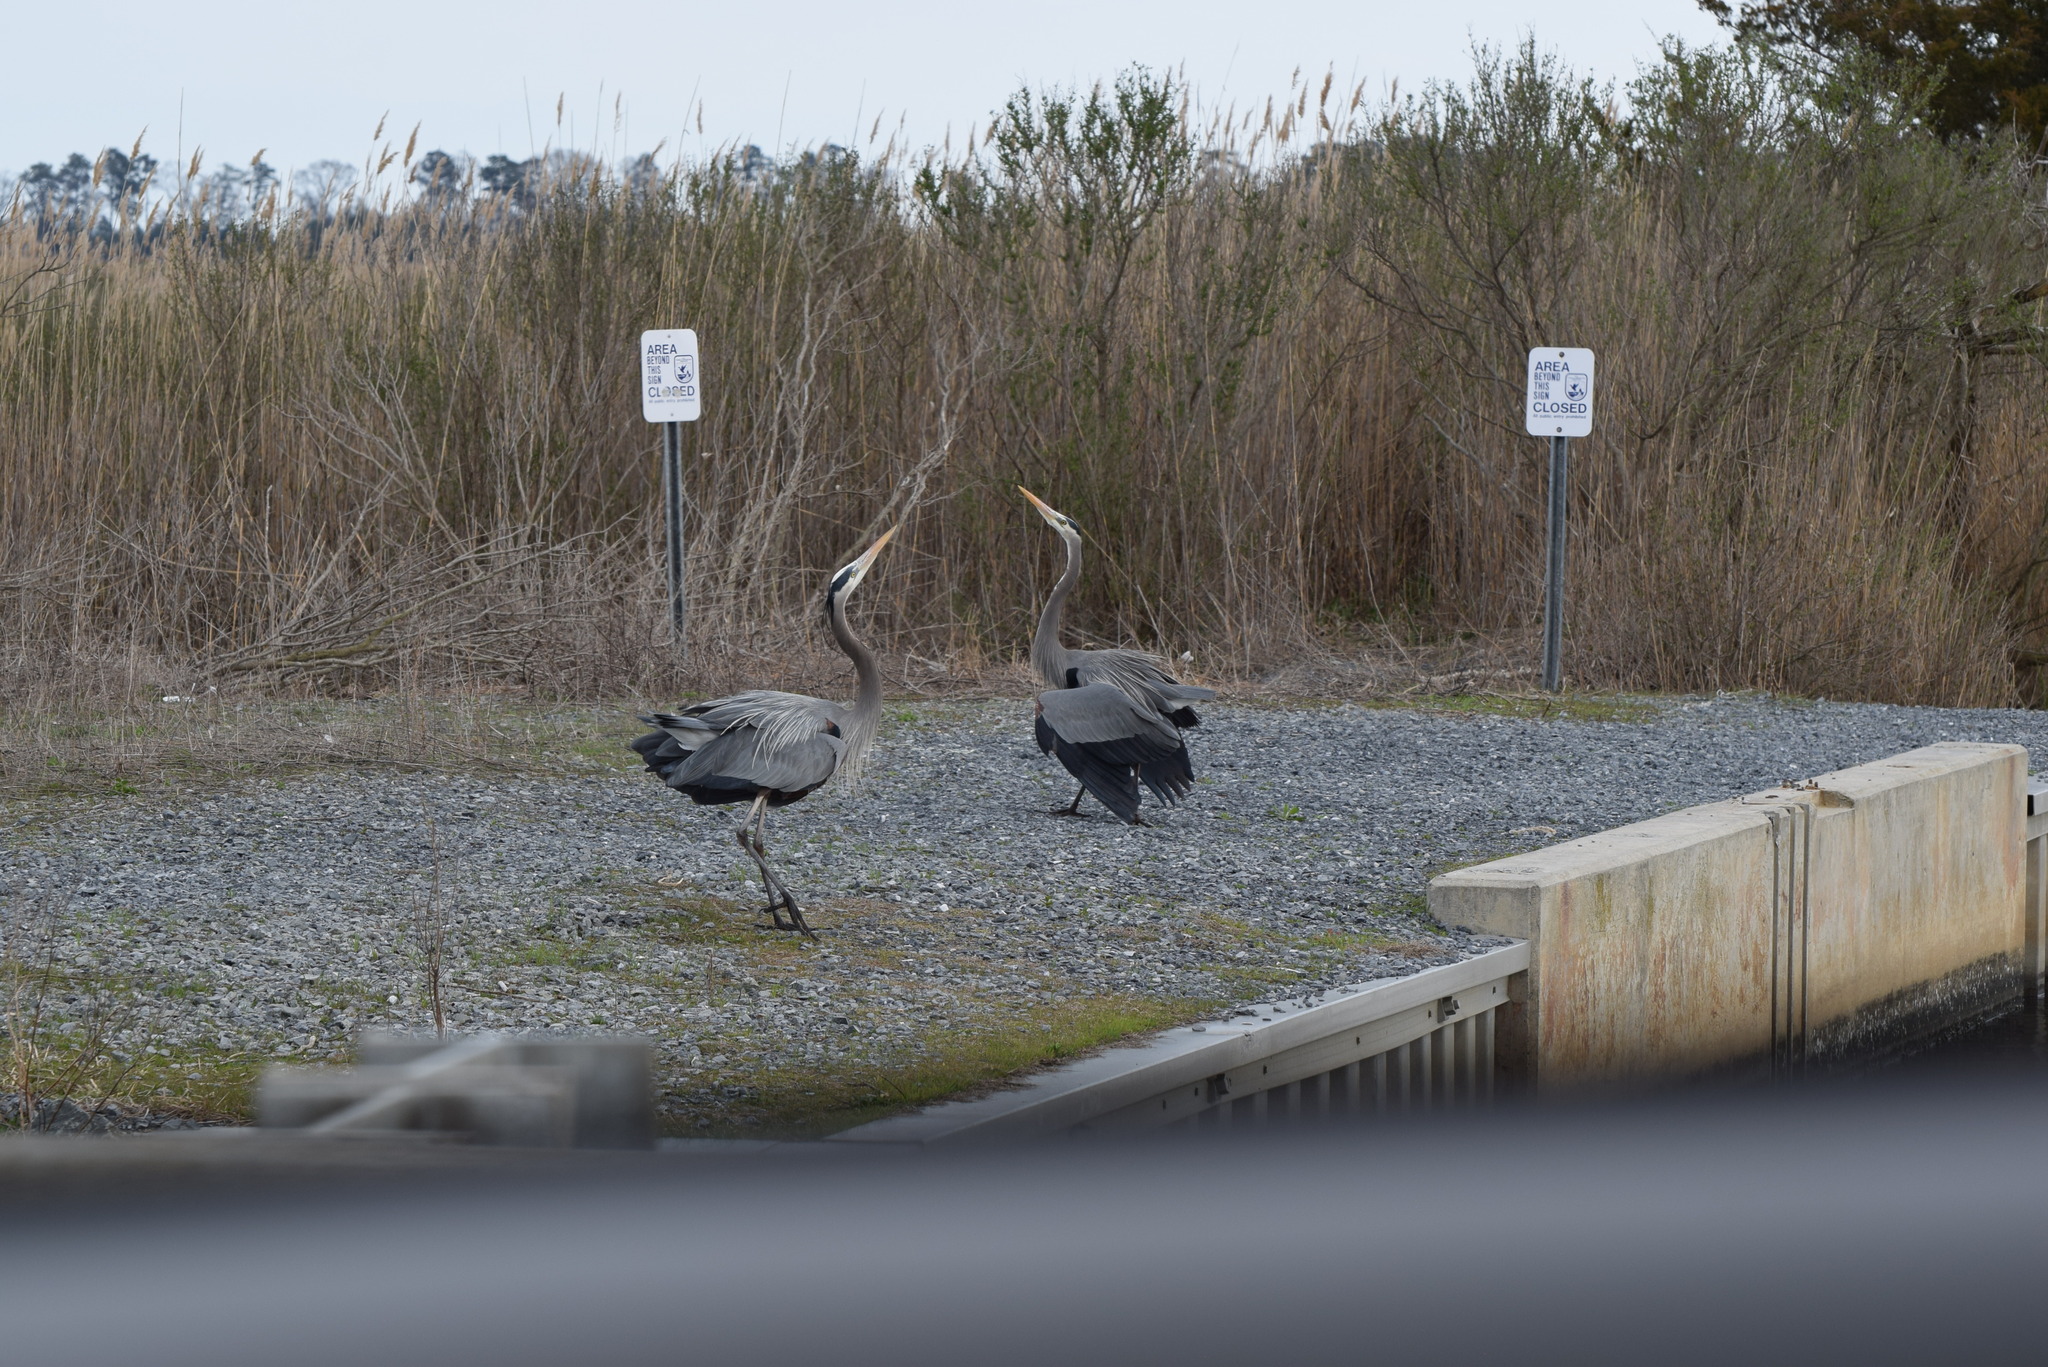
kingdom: Animalia
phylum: Chordata
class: Aves
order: Pelecaniformes
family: Ardeidae
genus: Ardea
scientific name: Ardea herodias
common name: Great blue heron
